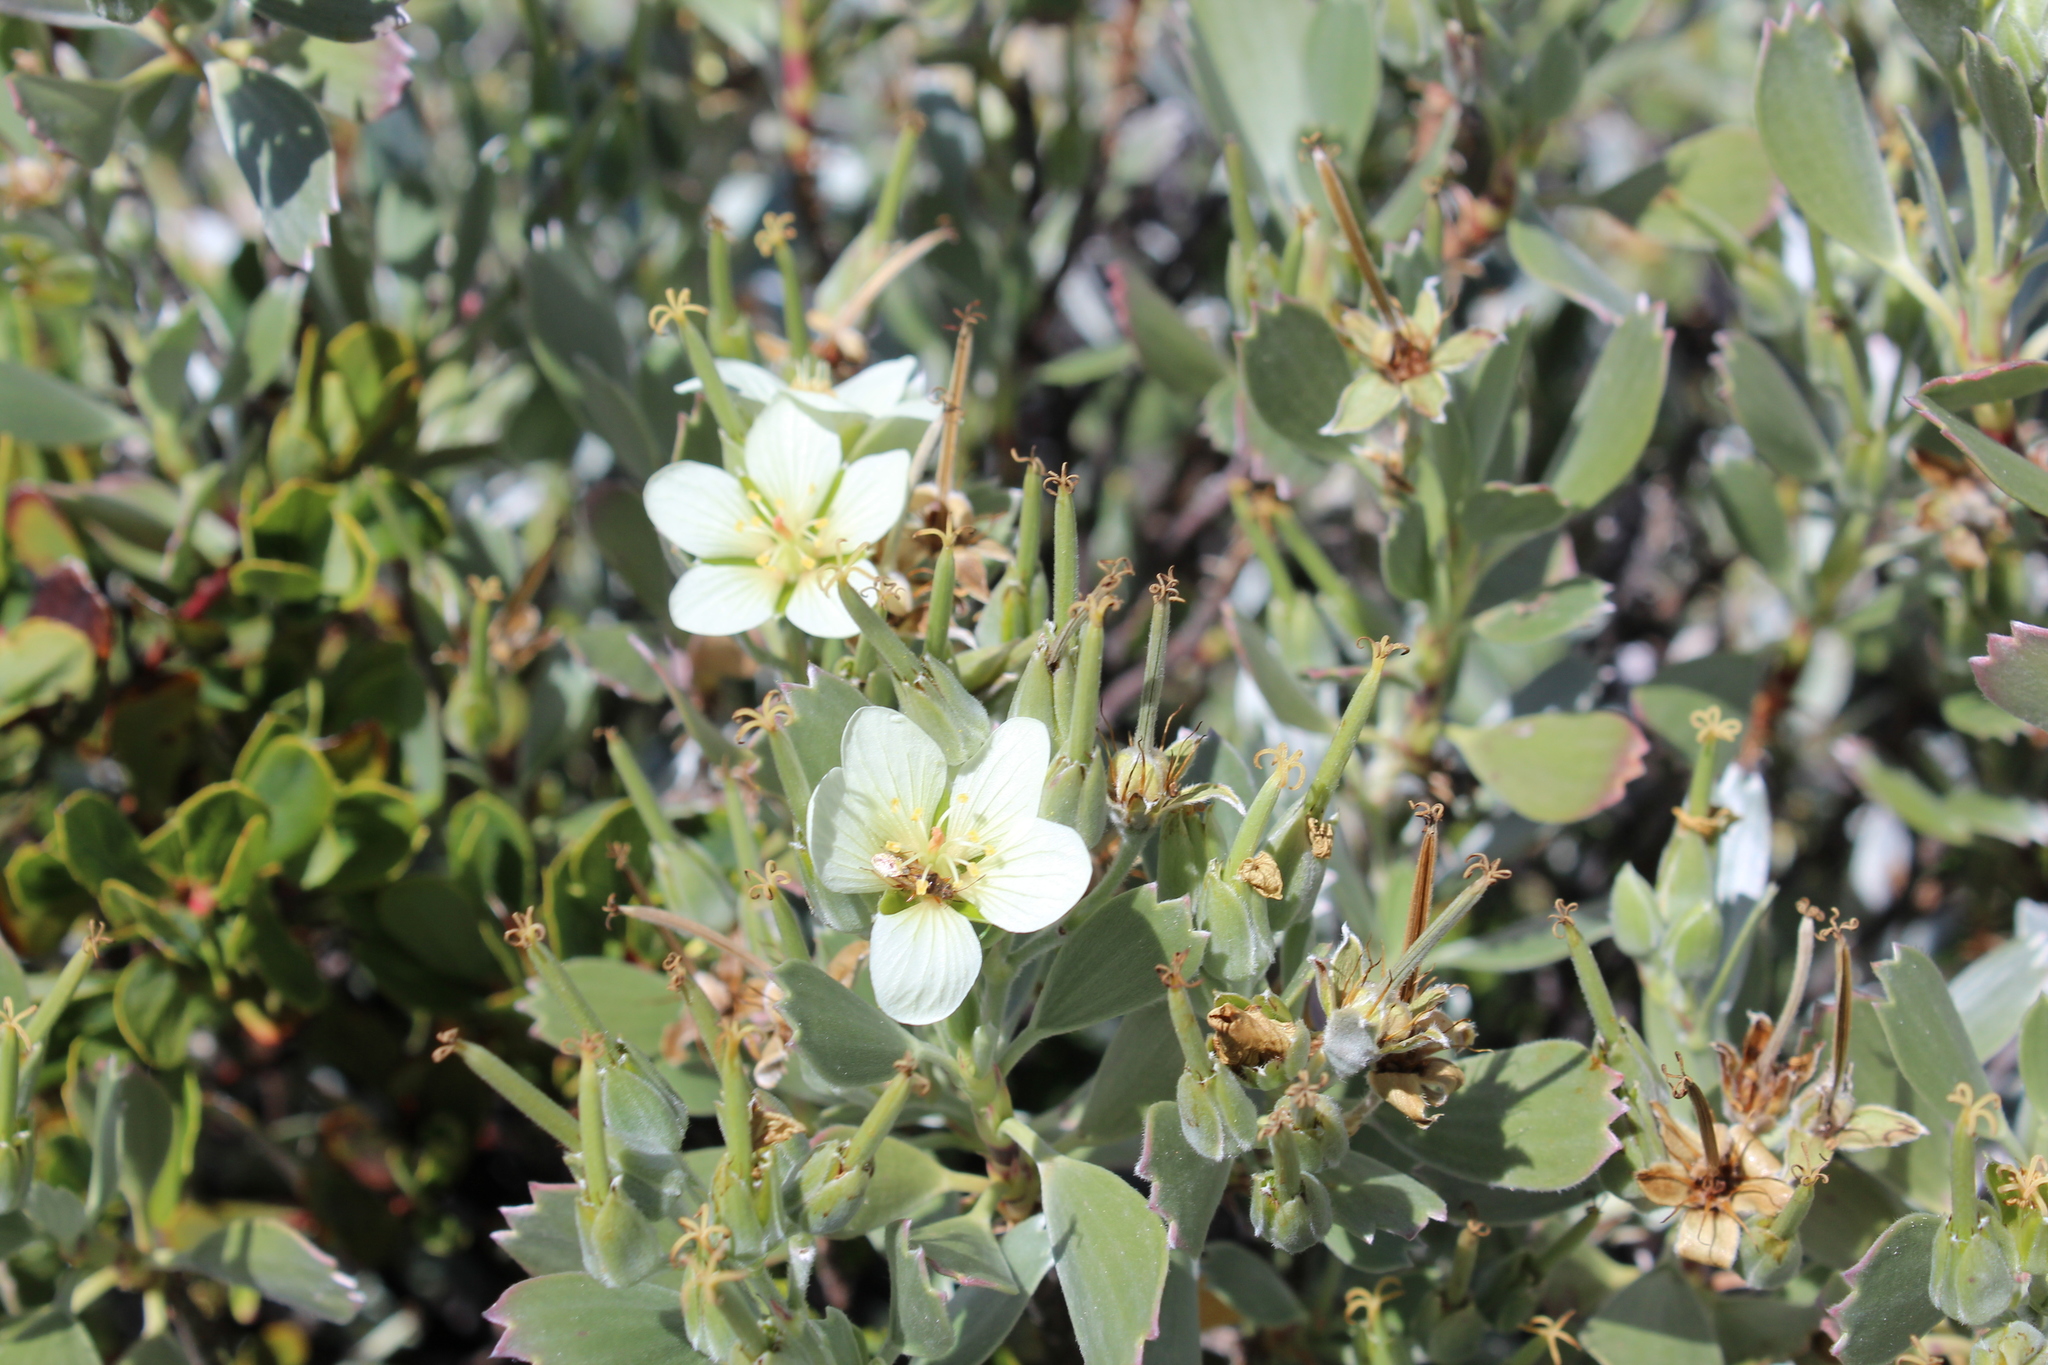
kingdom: Plantae
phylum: Tracheophyta
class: Magnoliopsida
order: Geraniales
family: Geraniaceae
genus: Geranium
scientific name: Geranium cuneatum
